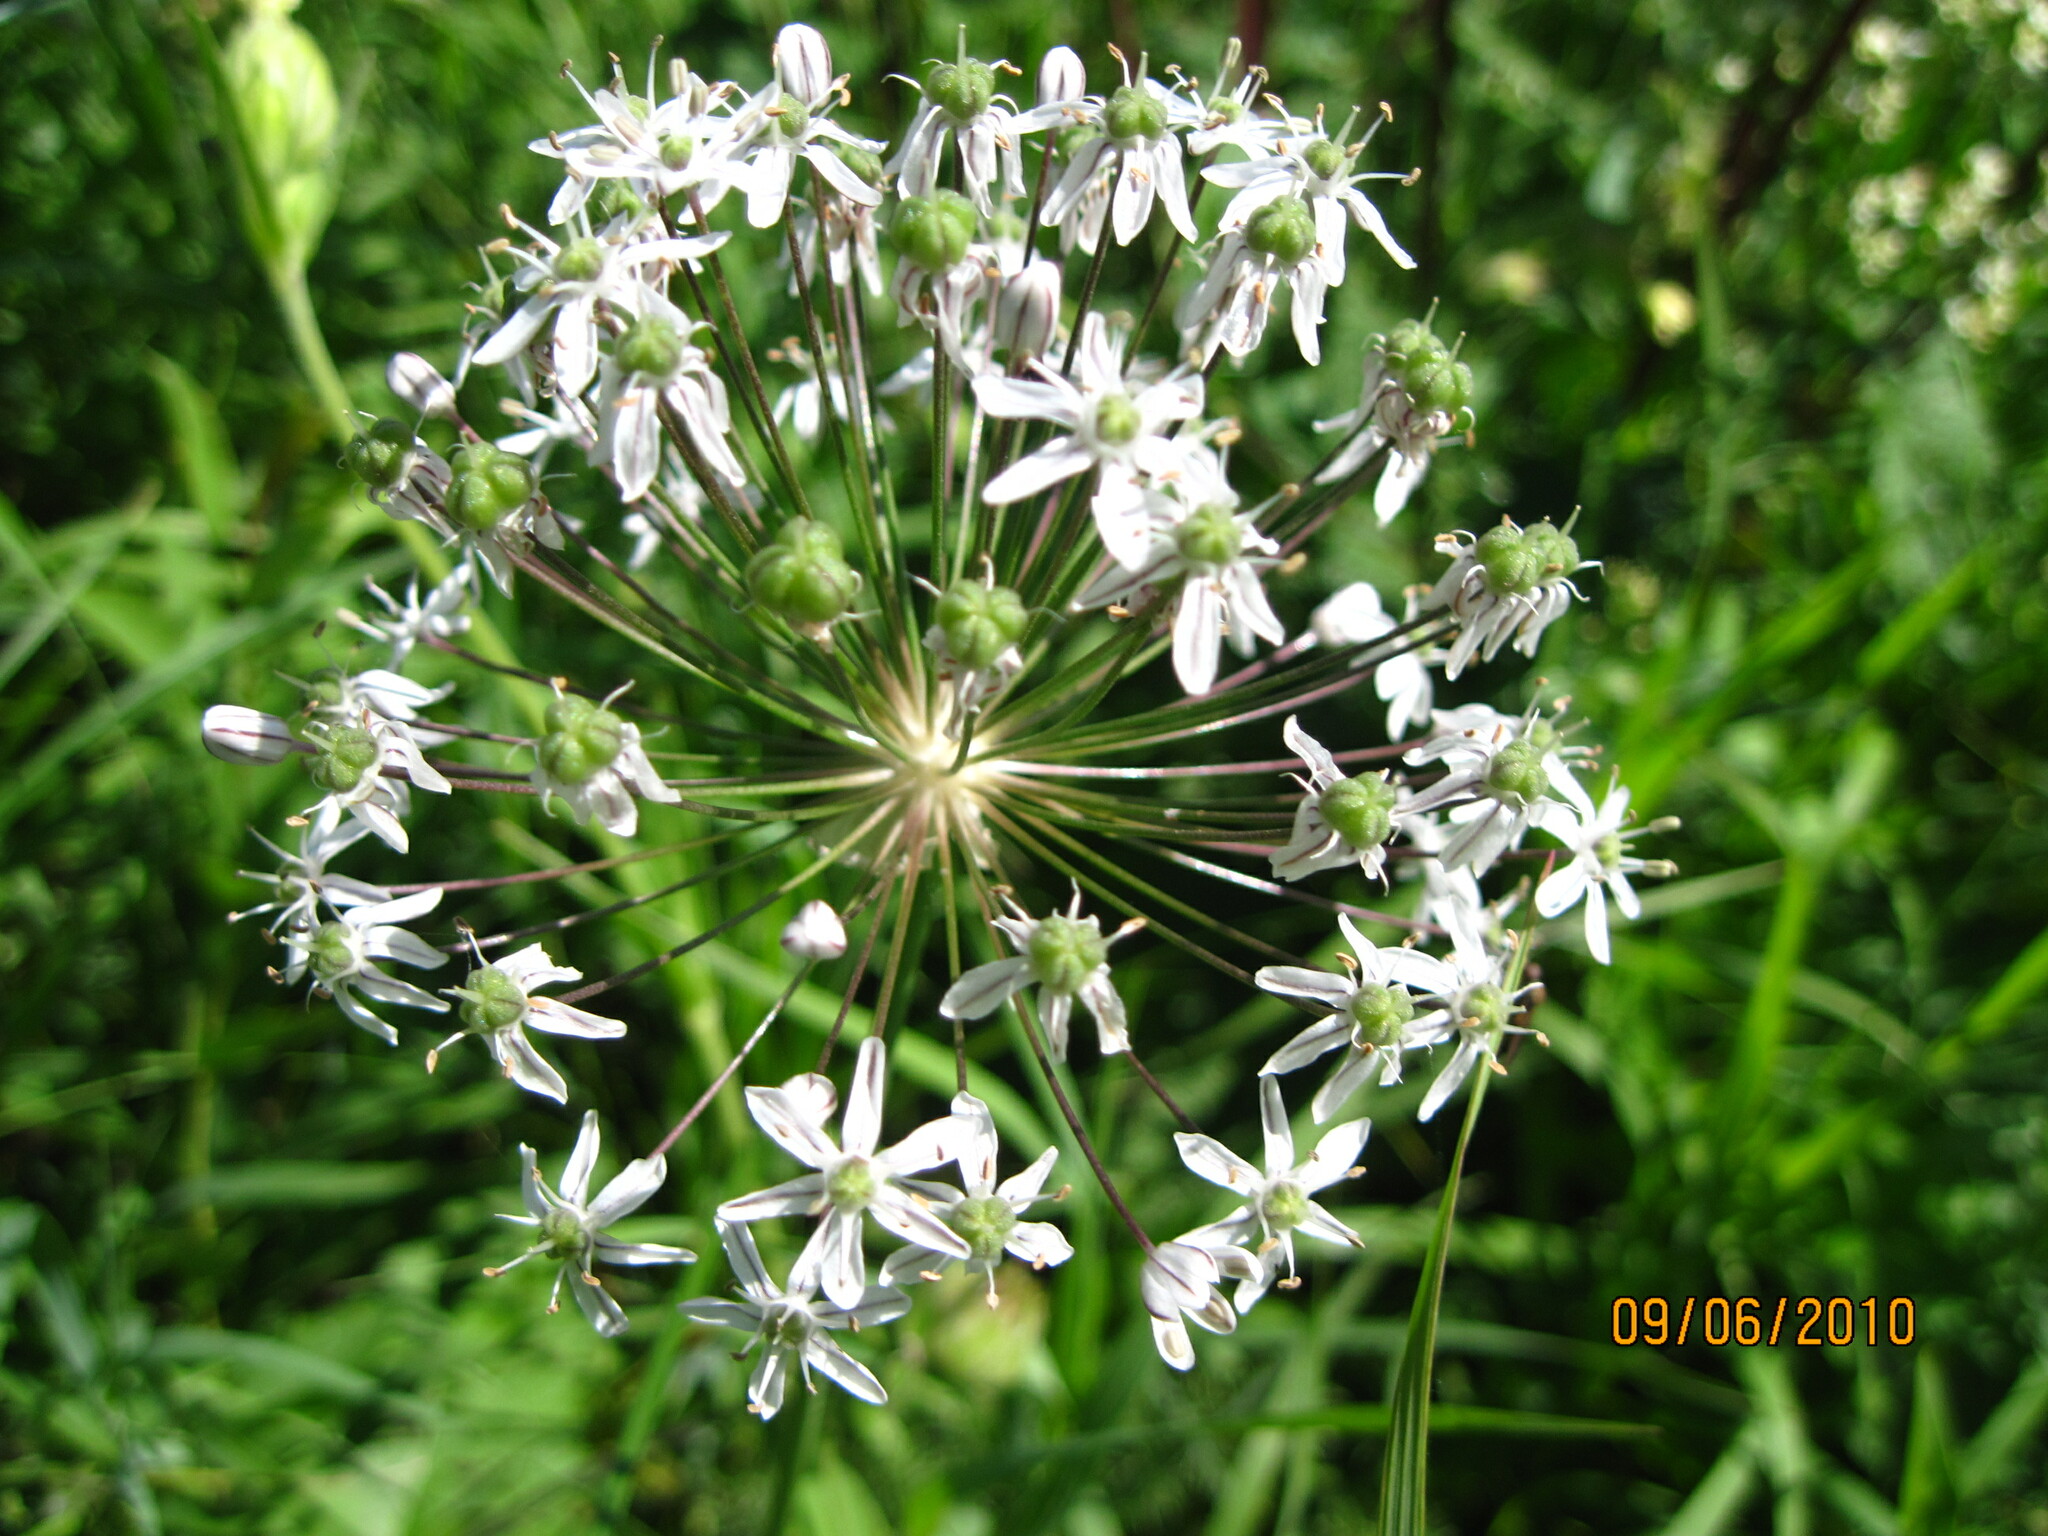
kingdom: Plantae
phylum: Tracheophyta
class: Liliopsida
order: Asparagales
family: Amaryllidaceae
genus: Allium
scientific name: Allium decipiens
